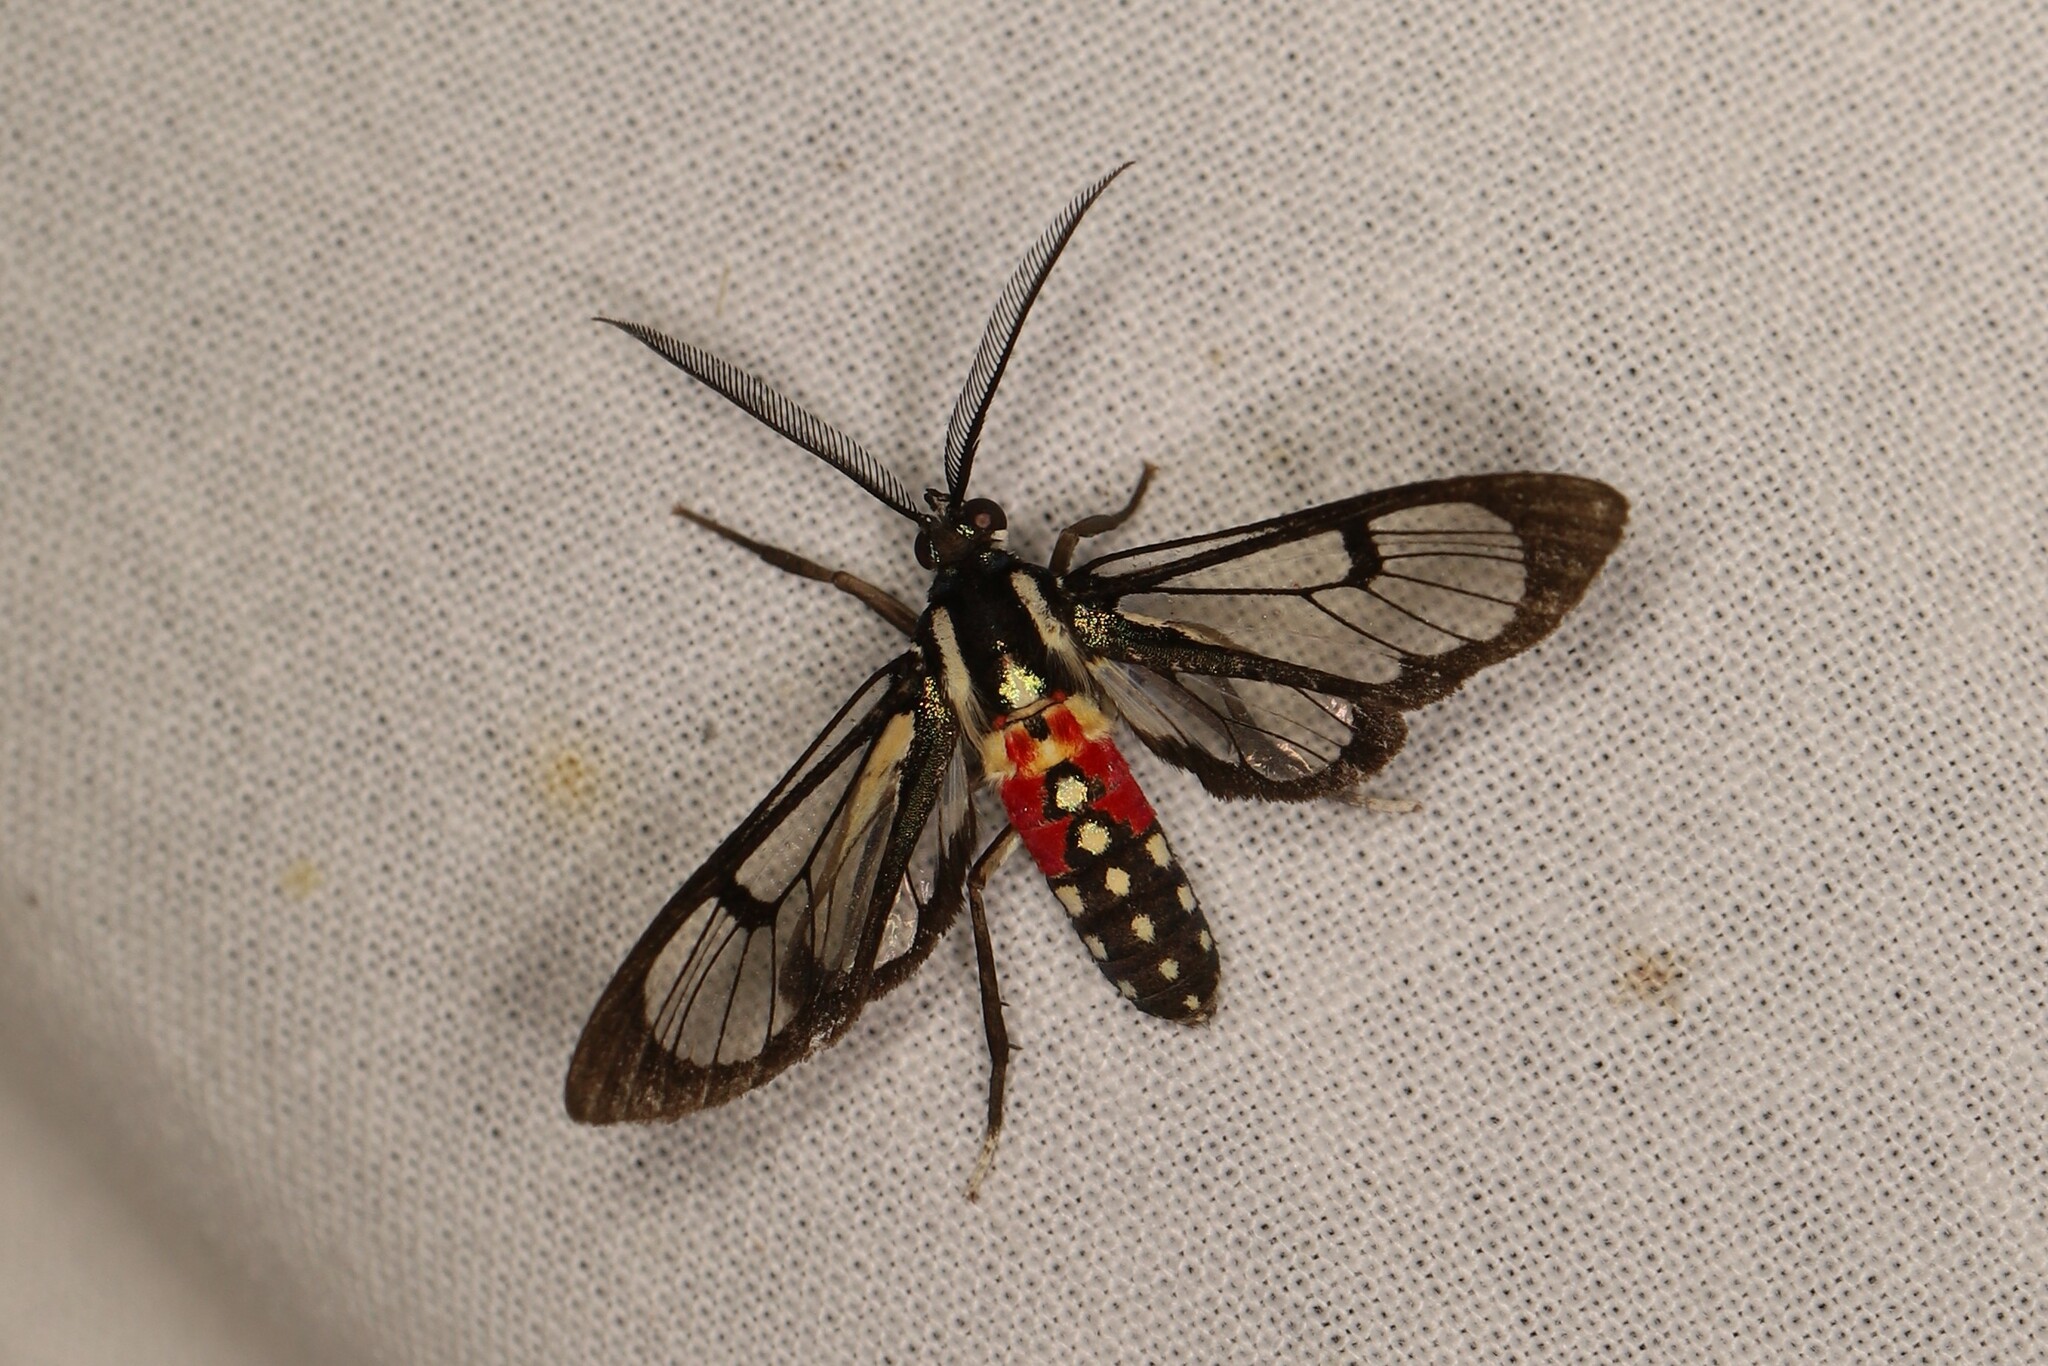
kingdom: Animalia
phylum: Arthropoda
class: Insecta
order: Lepidoptera
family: Erebidae
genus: Poecilosoma
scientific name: Poecilosoma eone
